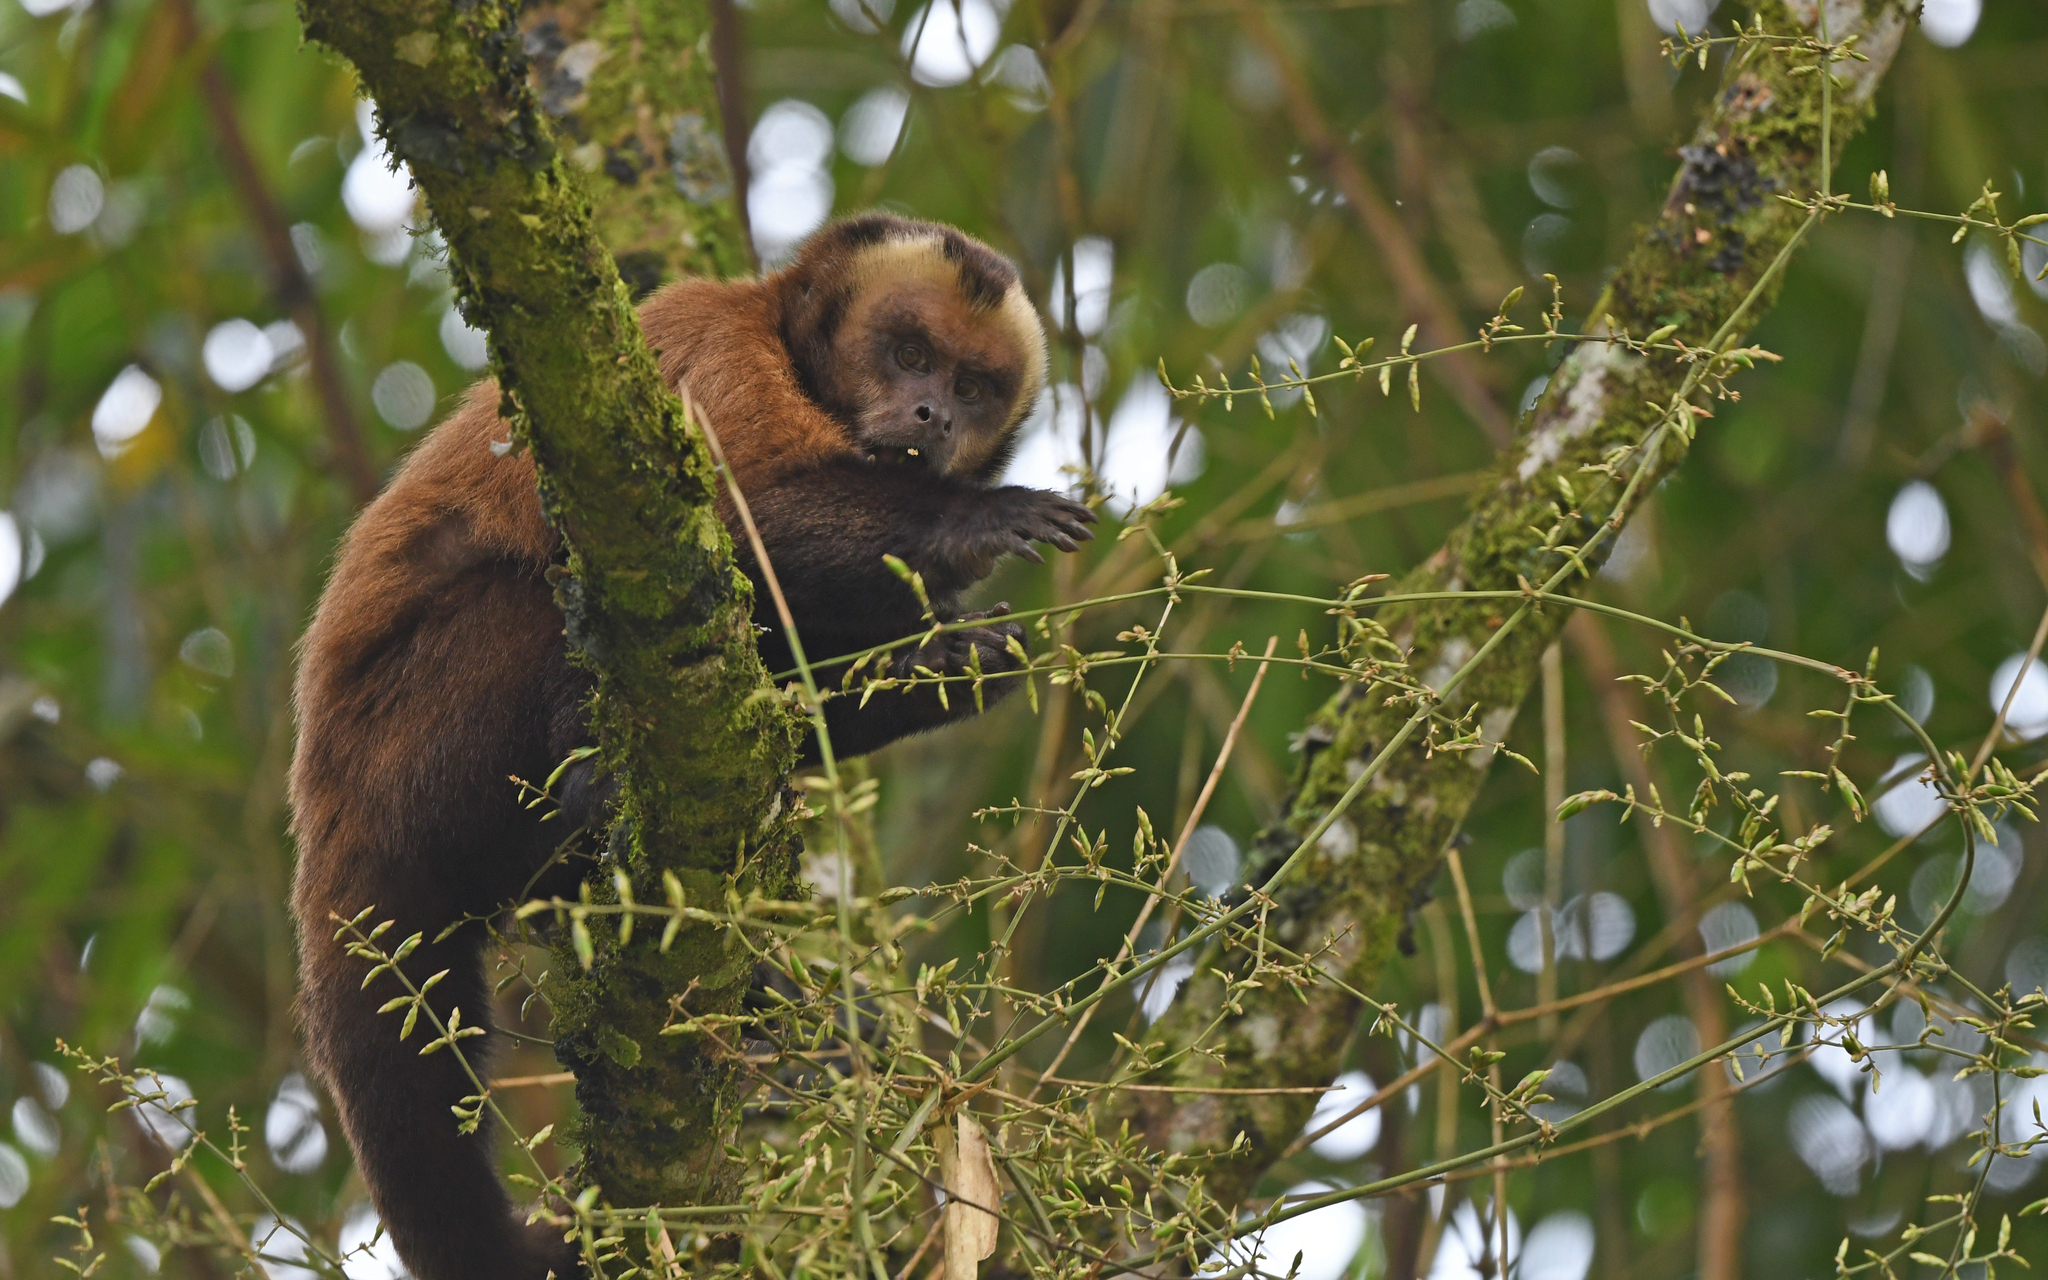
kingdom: Animalia
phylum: Chordata
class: Mammalia
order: Primates
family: Cebidae
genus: Sapajus
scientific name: Sapajus apella
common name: Tufted capuchin
